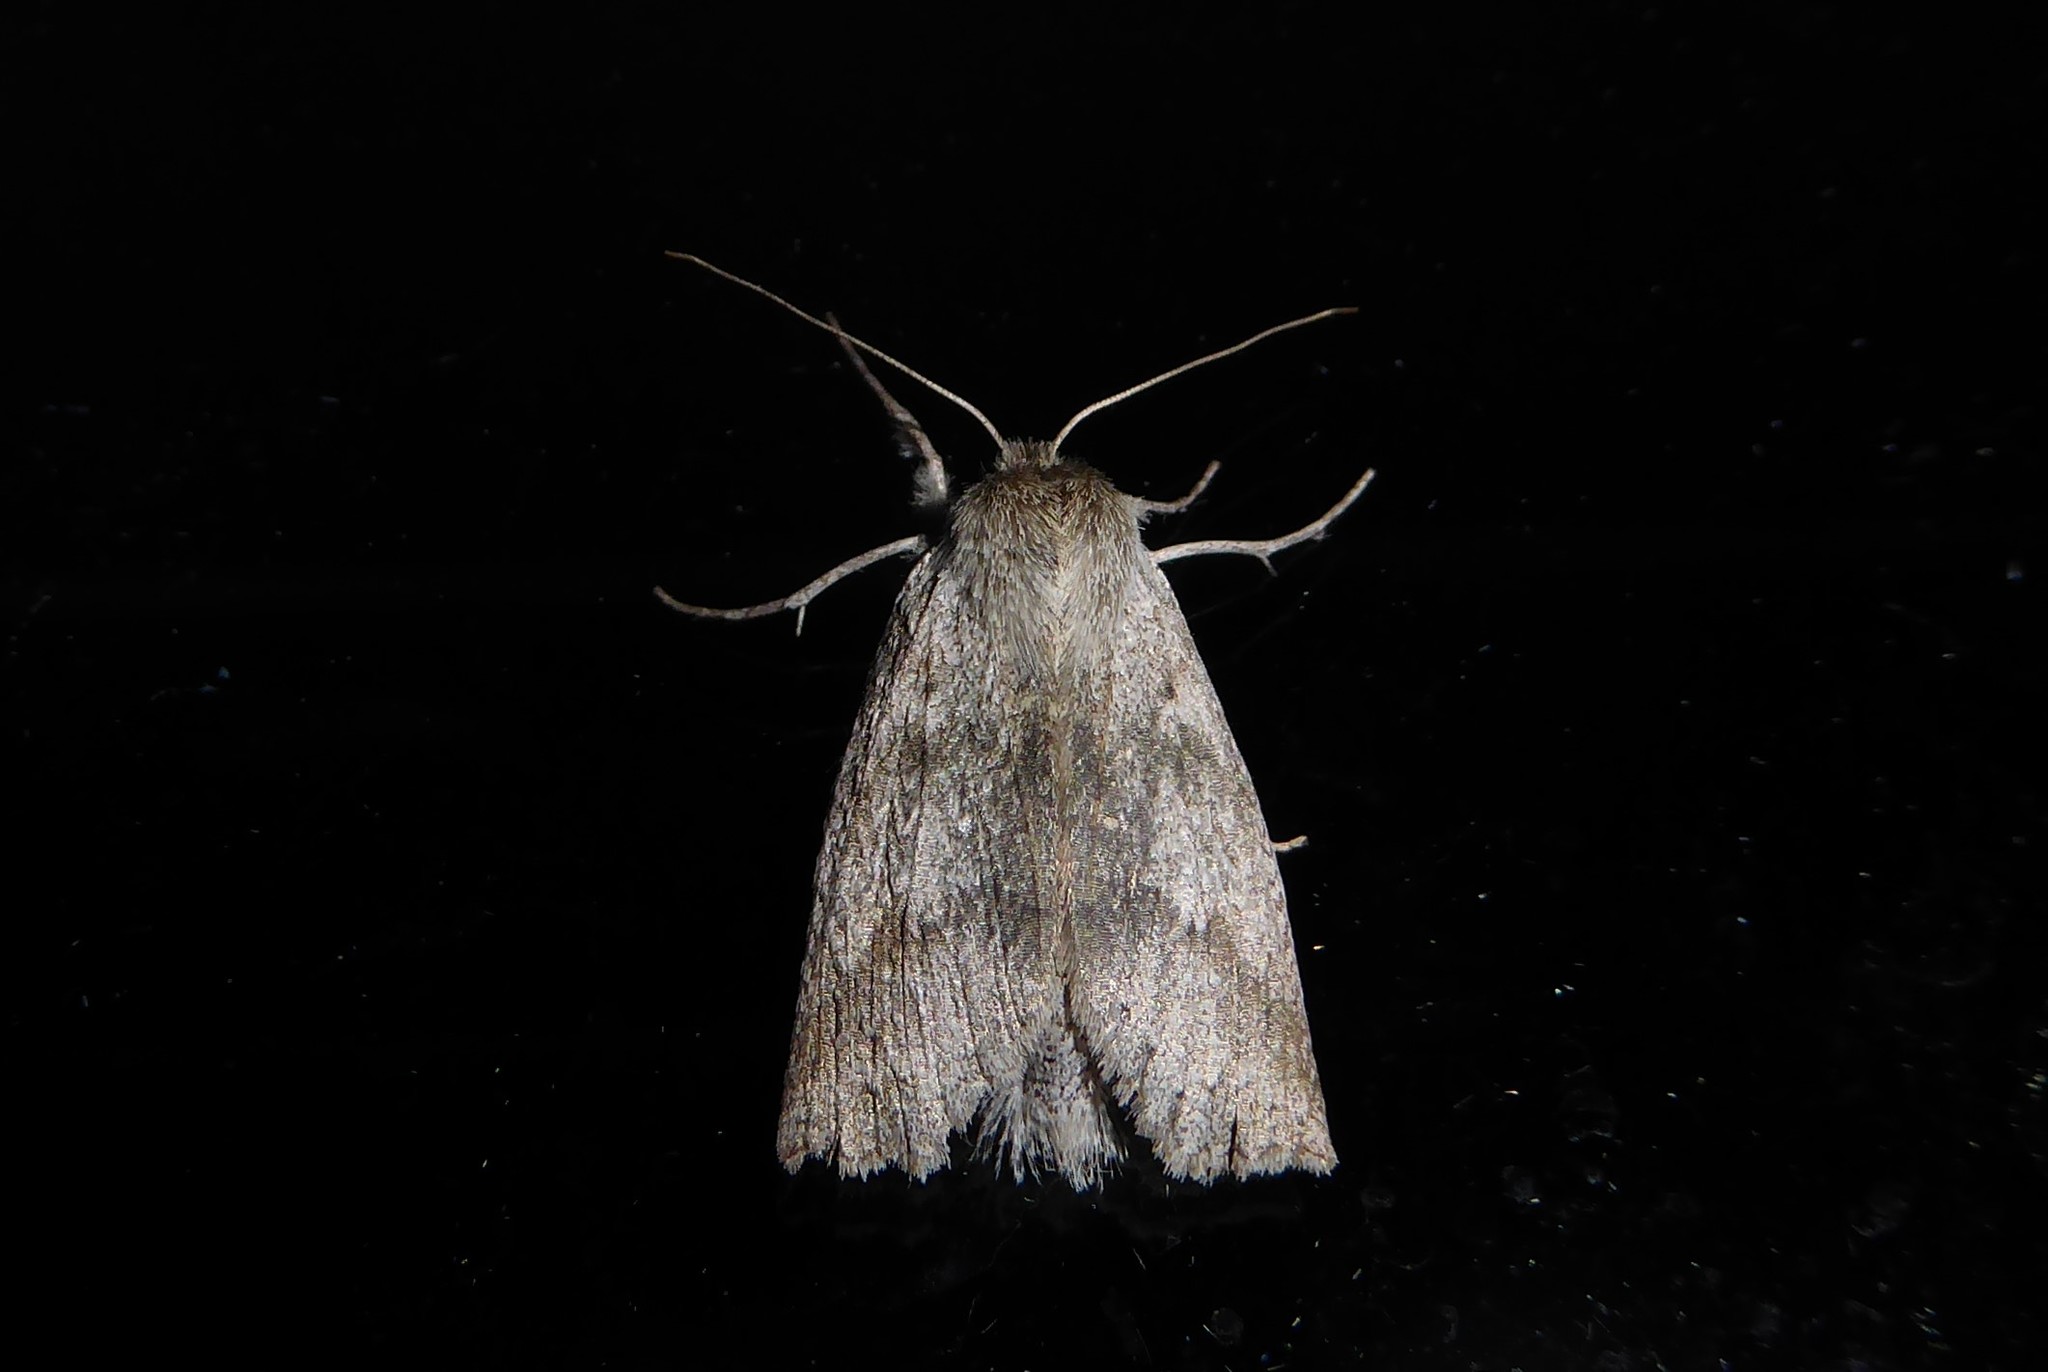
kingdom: Animalia
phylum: Arthropoda
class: Insecta
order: Lepidoptera
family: Geometridae
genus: Declana
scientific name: Declana leptomera
